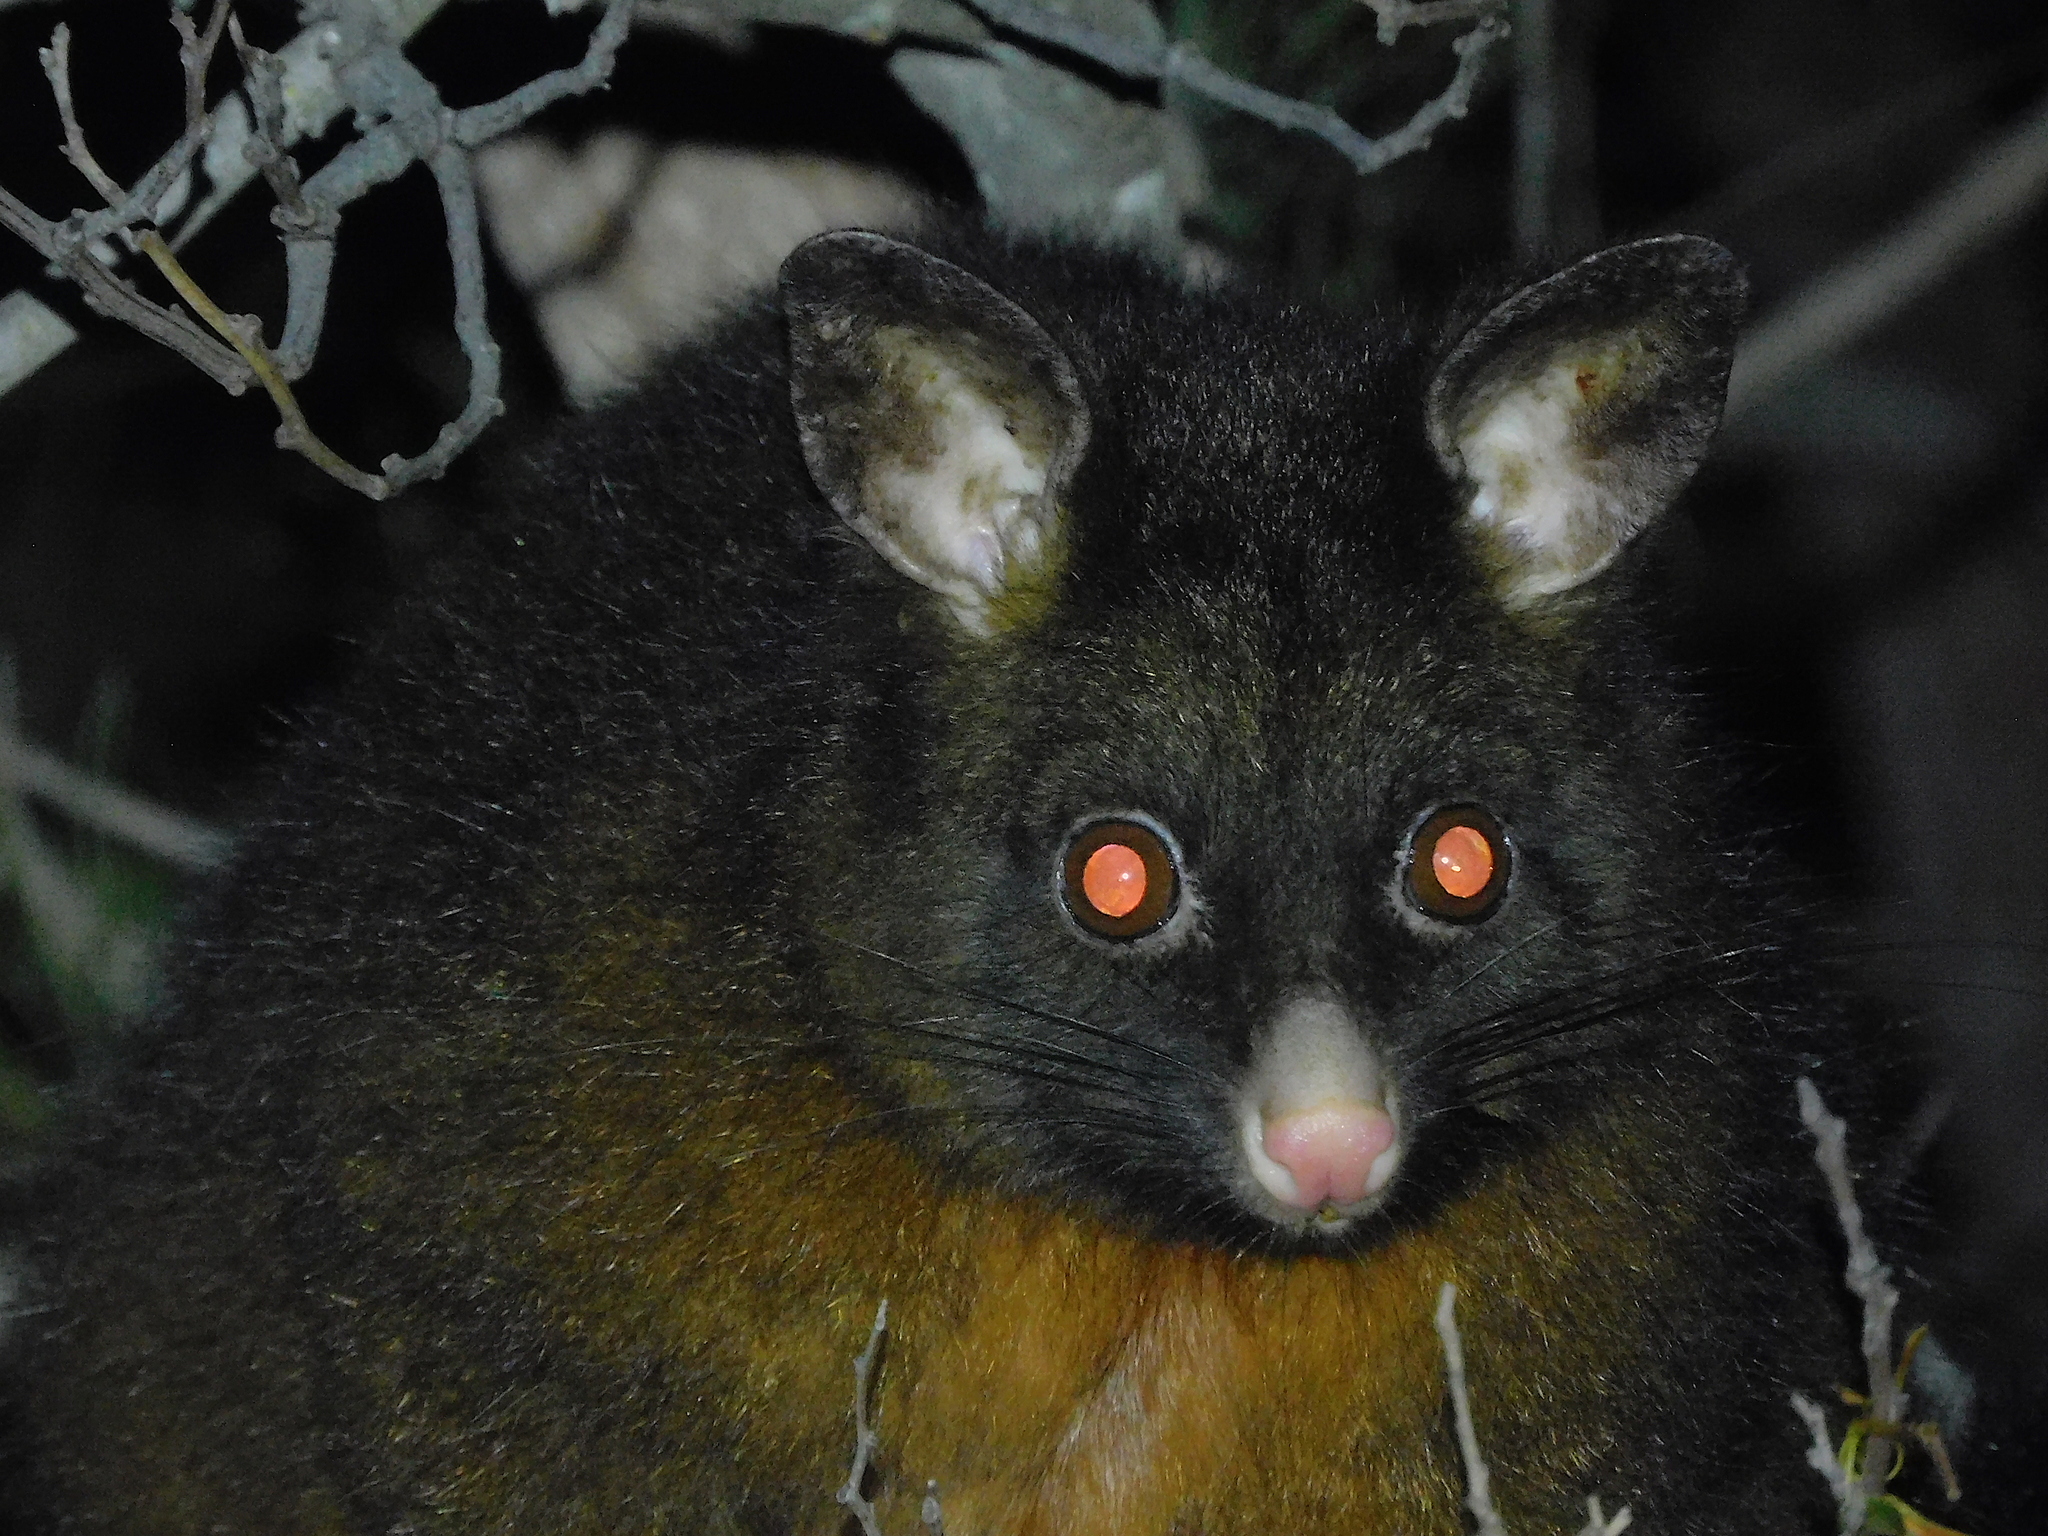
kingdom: Animalia
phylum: Chordata
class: Mammalia
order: Diprotodontia
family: Phalangeridae
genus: Trichosurus
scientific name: Trichosurus vulpecula
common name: Common brushtail
